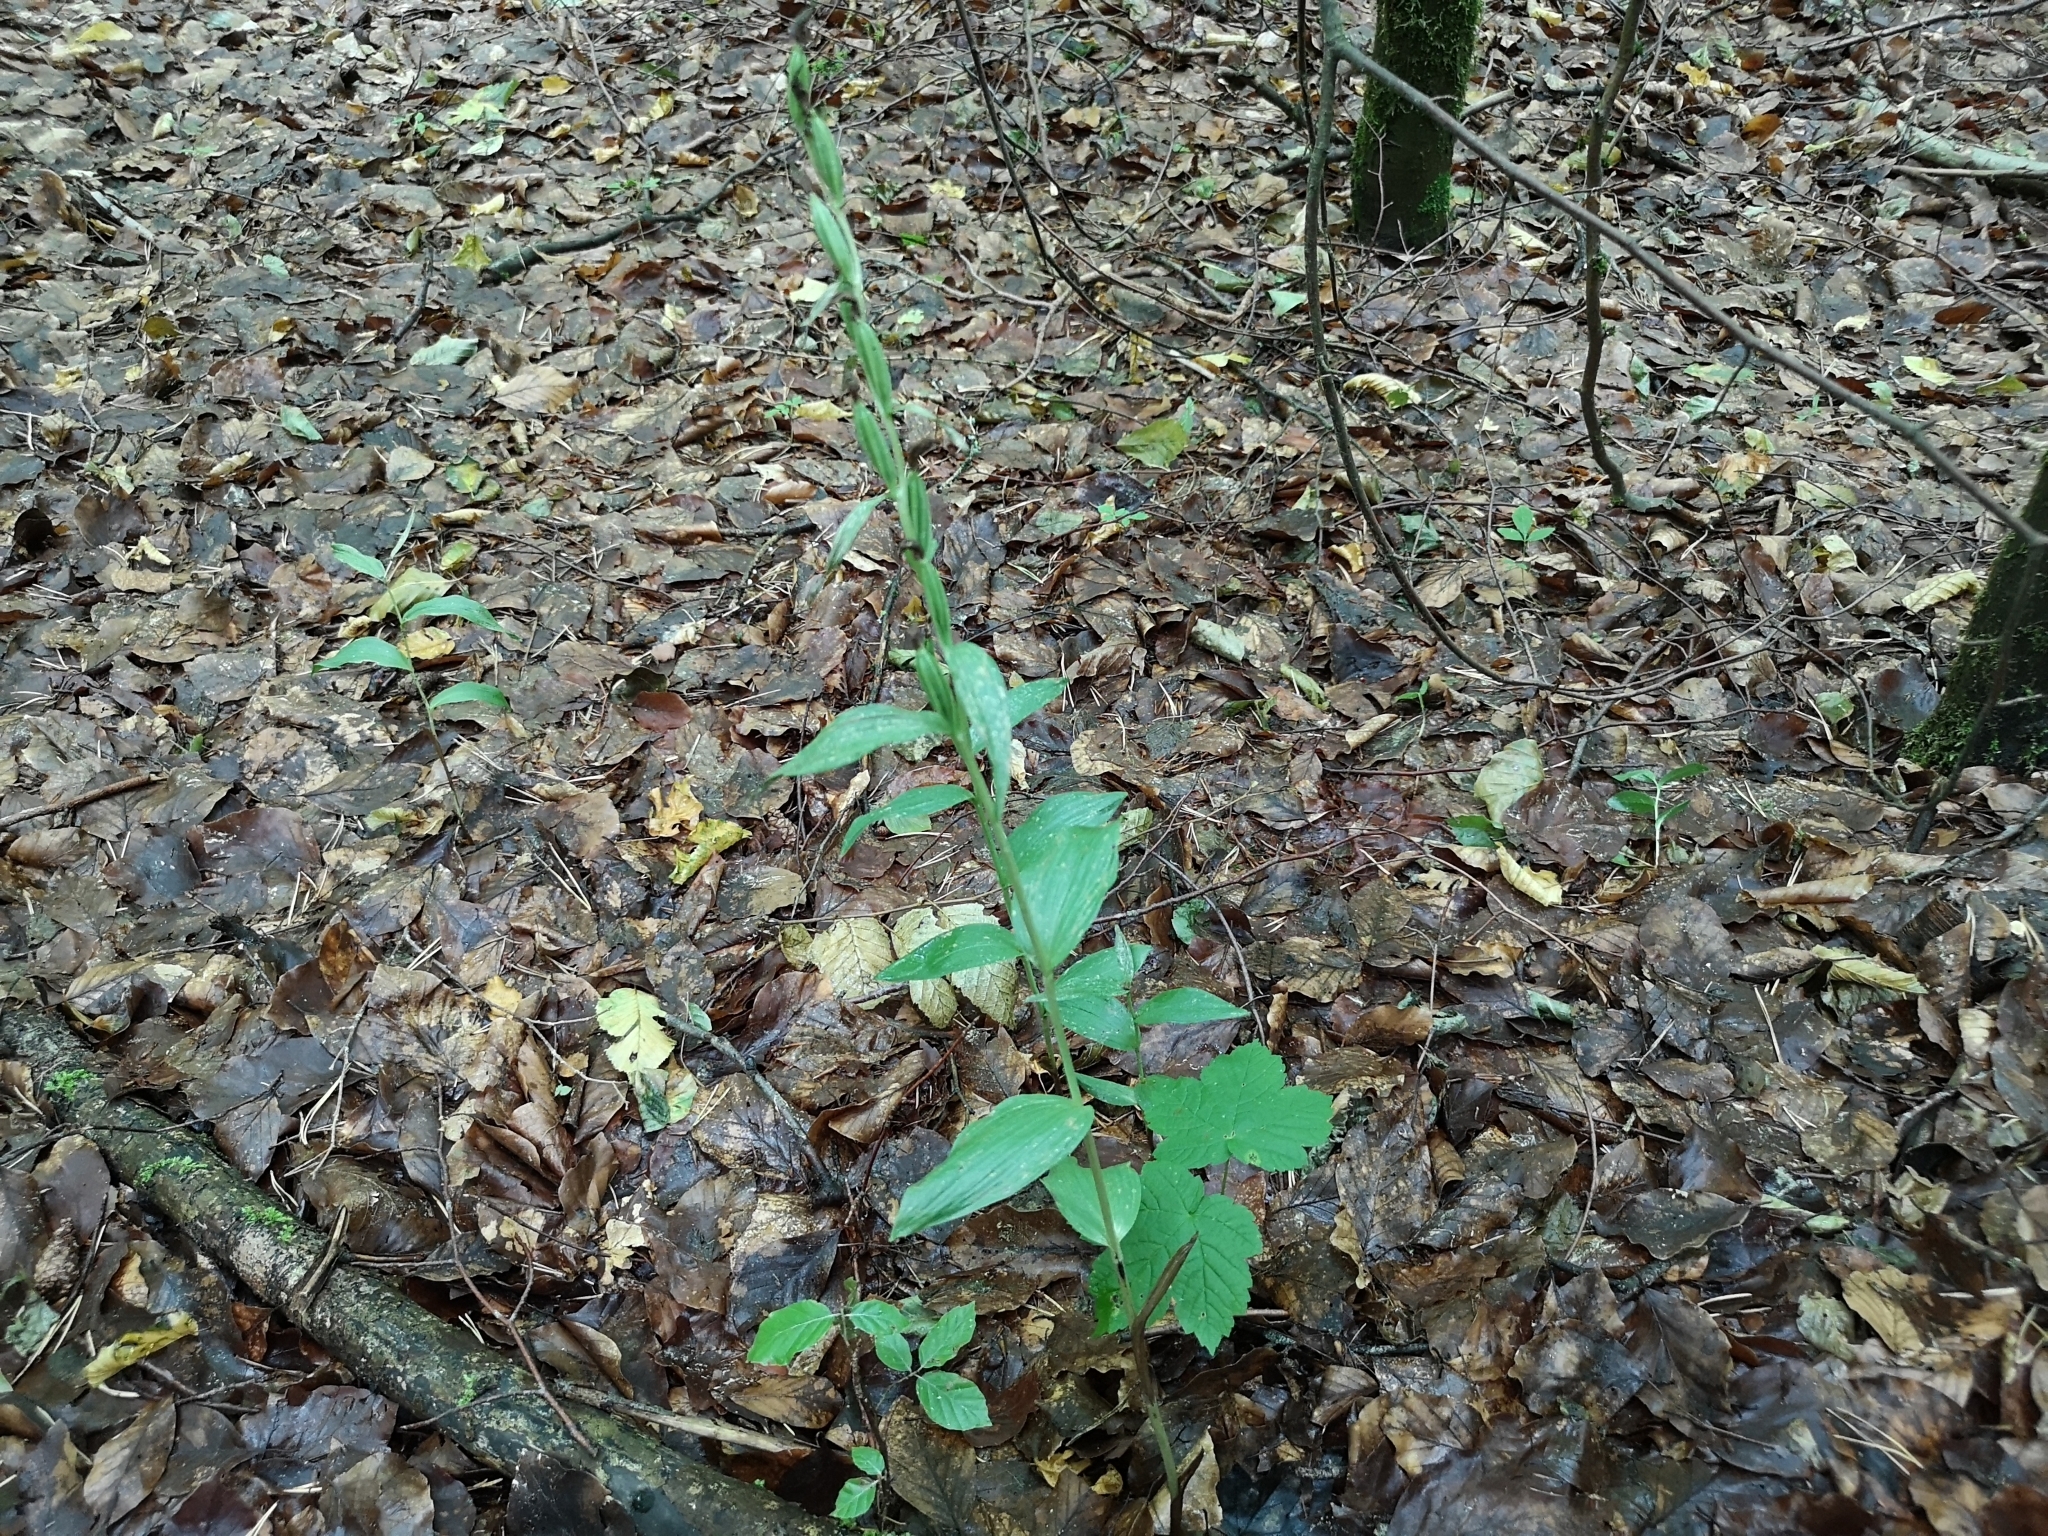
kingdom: Plantae
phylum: Tracheophyta
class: Liliopsida
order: Asparagales
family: Orchidaceae
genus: Cephalanthera
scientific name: Cephalanthera damasonium
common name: White helleborine
